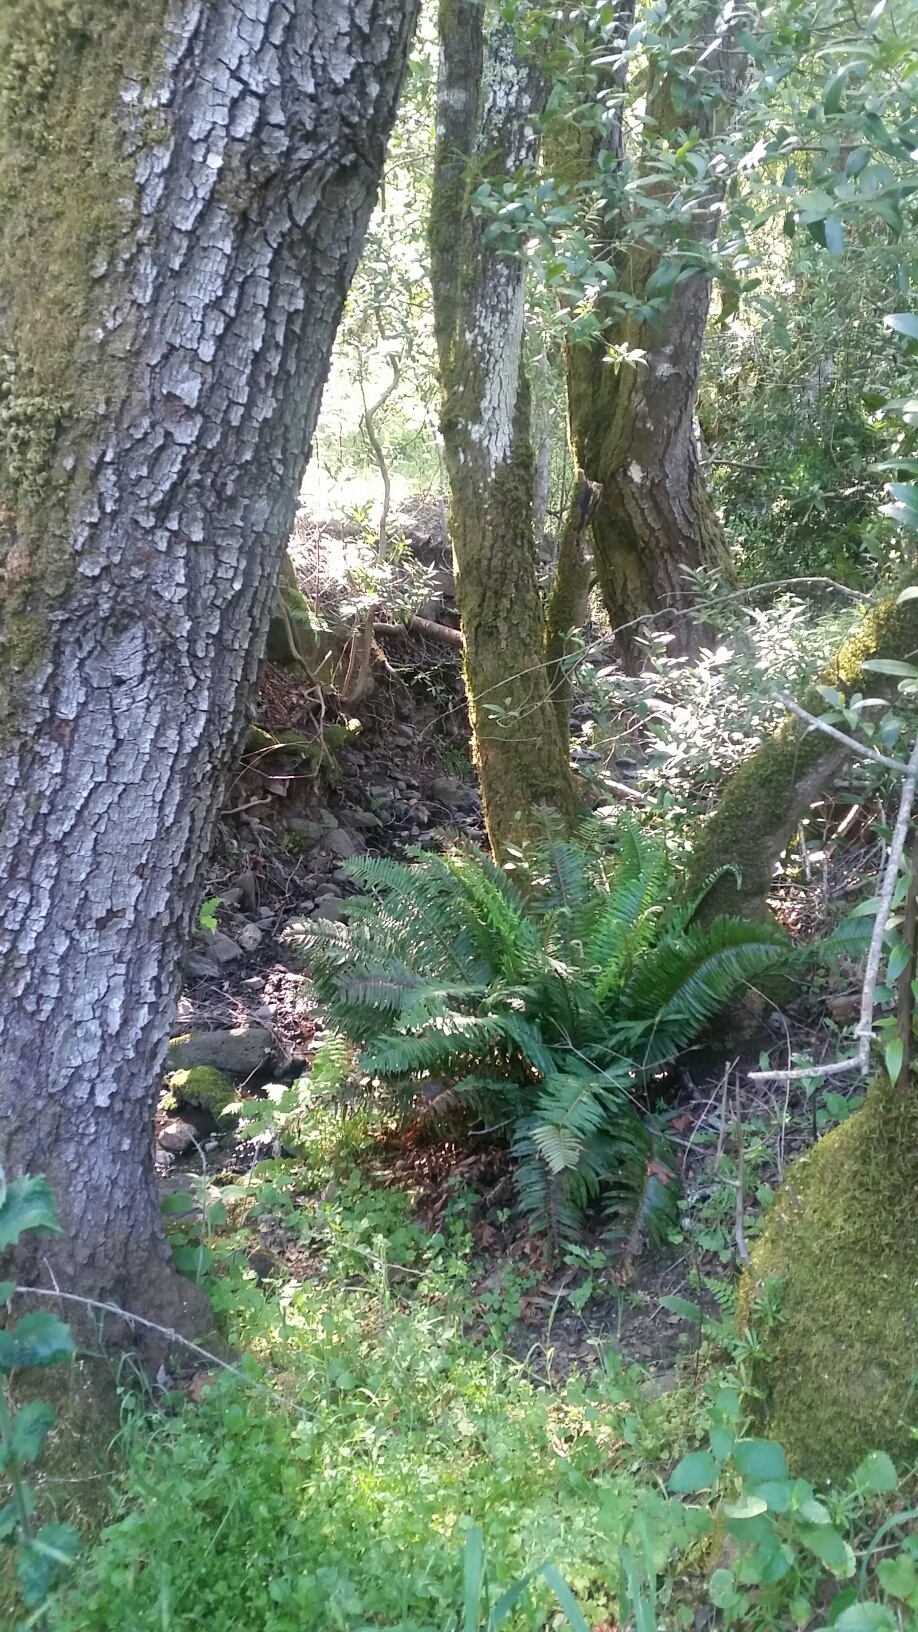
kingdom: Plantae
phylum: Tracheophyta
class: Polypodiopsida
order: Polypodiales
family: Dryopteridaceae
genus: Polystichum
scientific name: Polystichum munitum
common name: Western sword-fern
